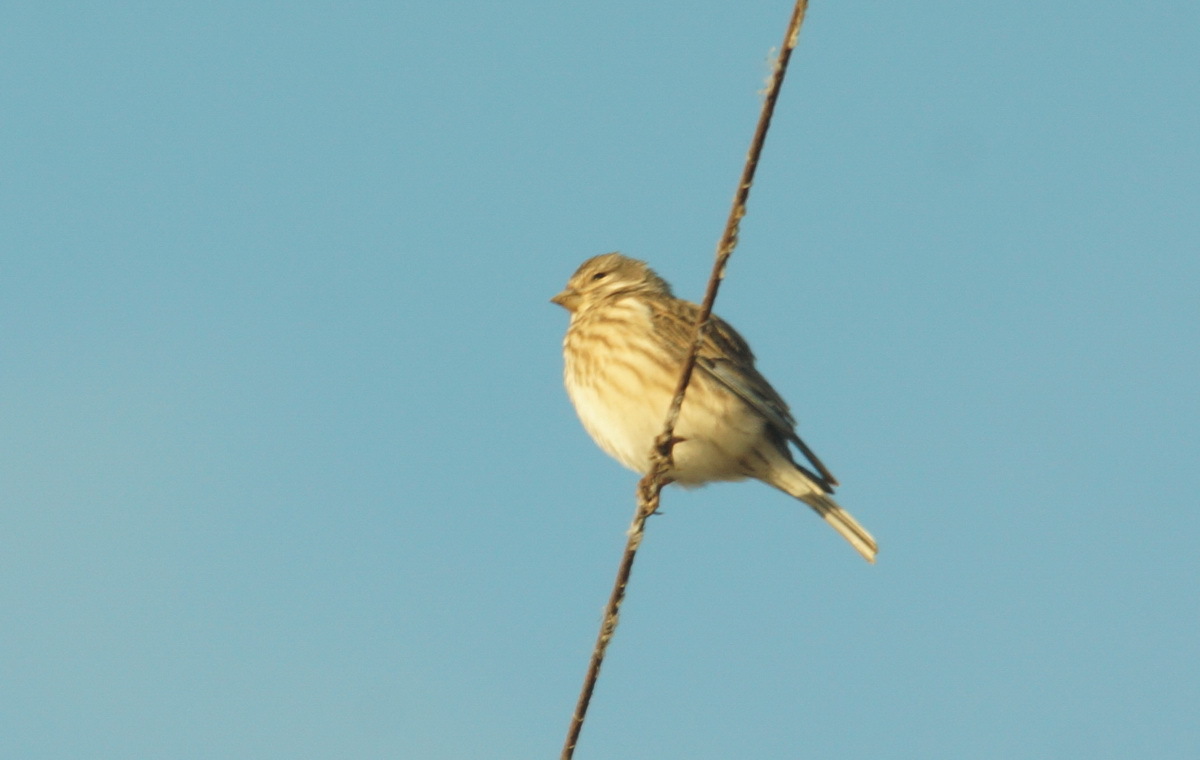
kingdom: Animalia
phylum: Chordata
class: Aves
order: Passeriformes
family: Fringillidae
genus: Linaria
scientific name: Linaria cannabina
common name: Common linnet
